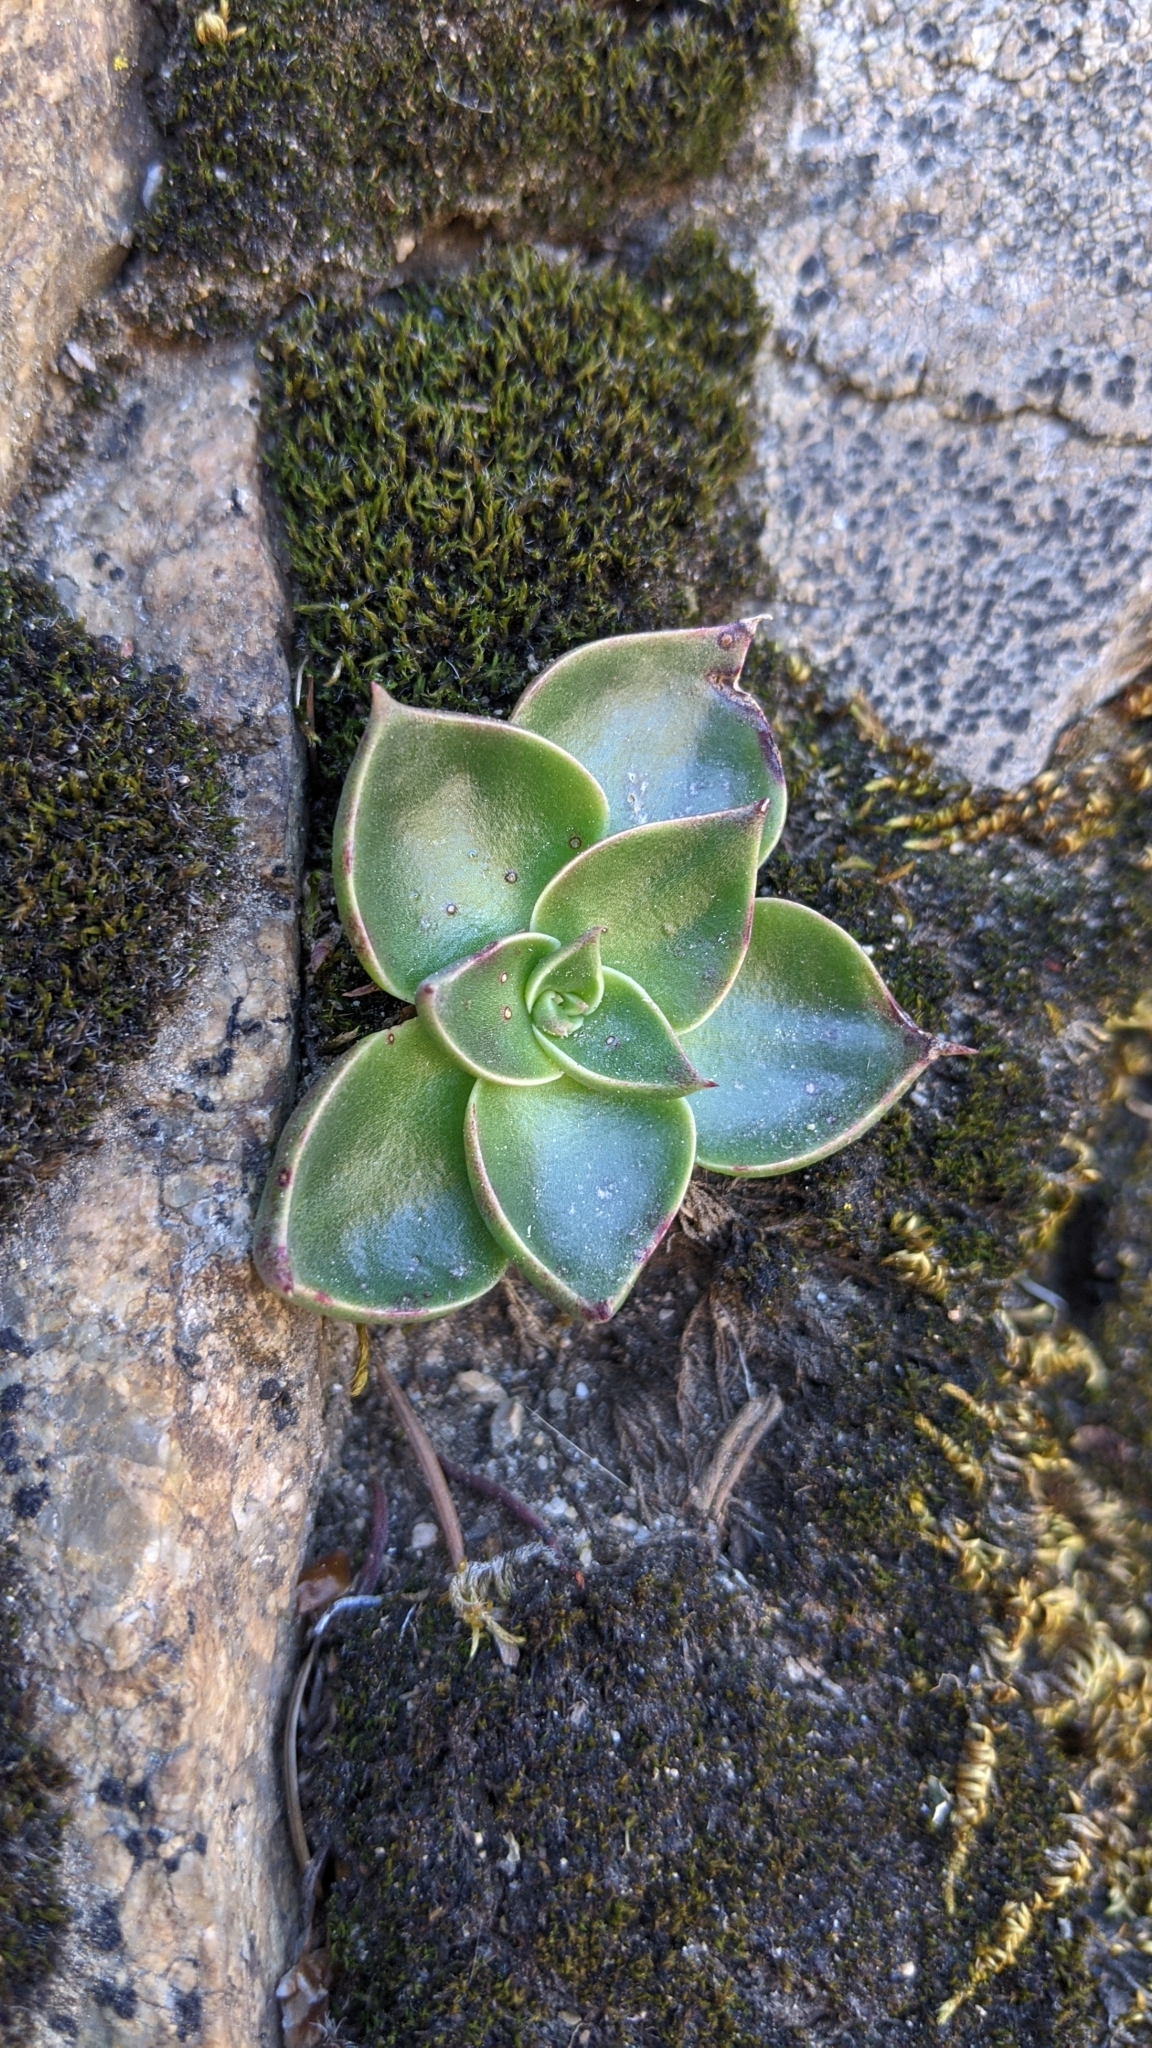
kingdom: Plantae
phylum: Tracheophyta
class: Magnoliopsida
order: Saxifragales
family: Crassulaceae
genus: Dudleya
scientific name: Dudleya cymosa
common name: Canyon dudleya
